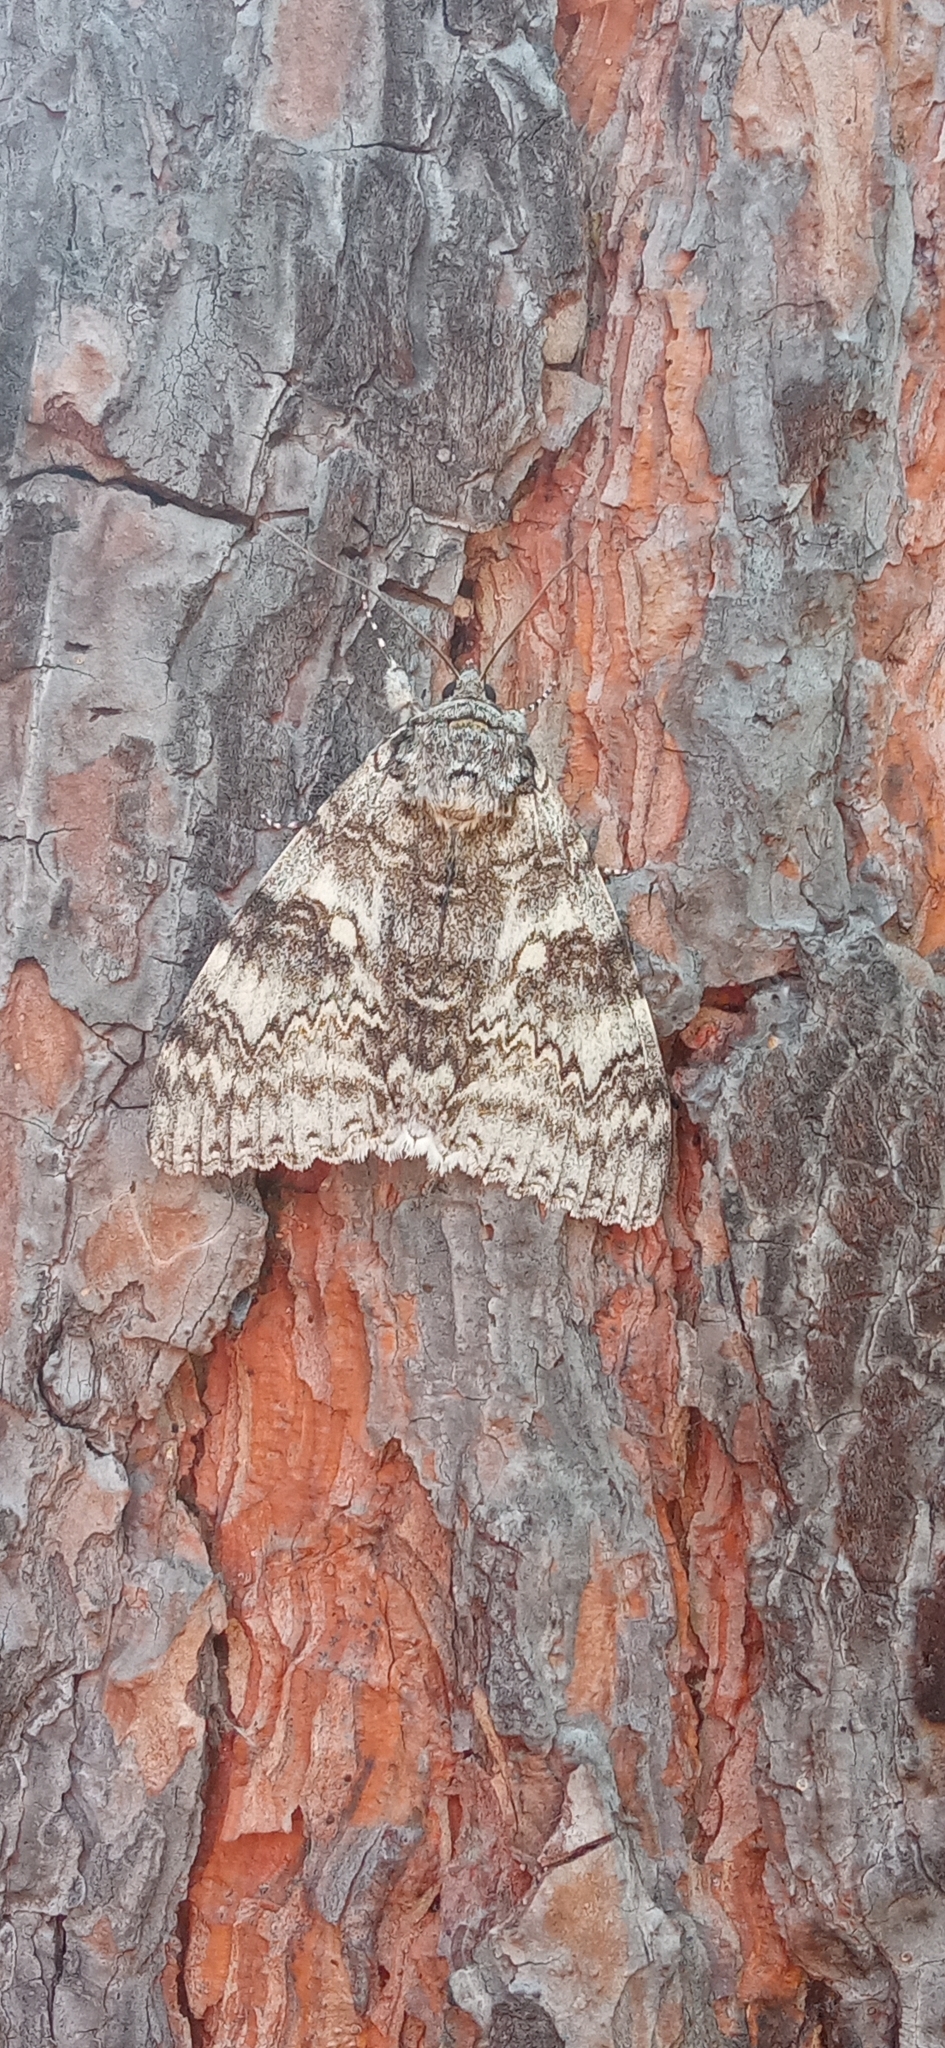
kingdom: Animalia
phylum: Arthropoda
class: Insecta
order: Lepidoptera
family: Erebidae
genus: Catocala
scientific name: Catocala fraxini
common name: Clifden nonpareil
